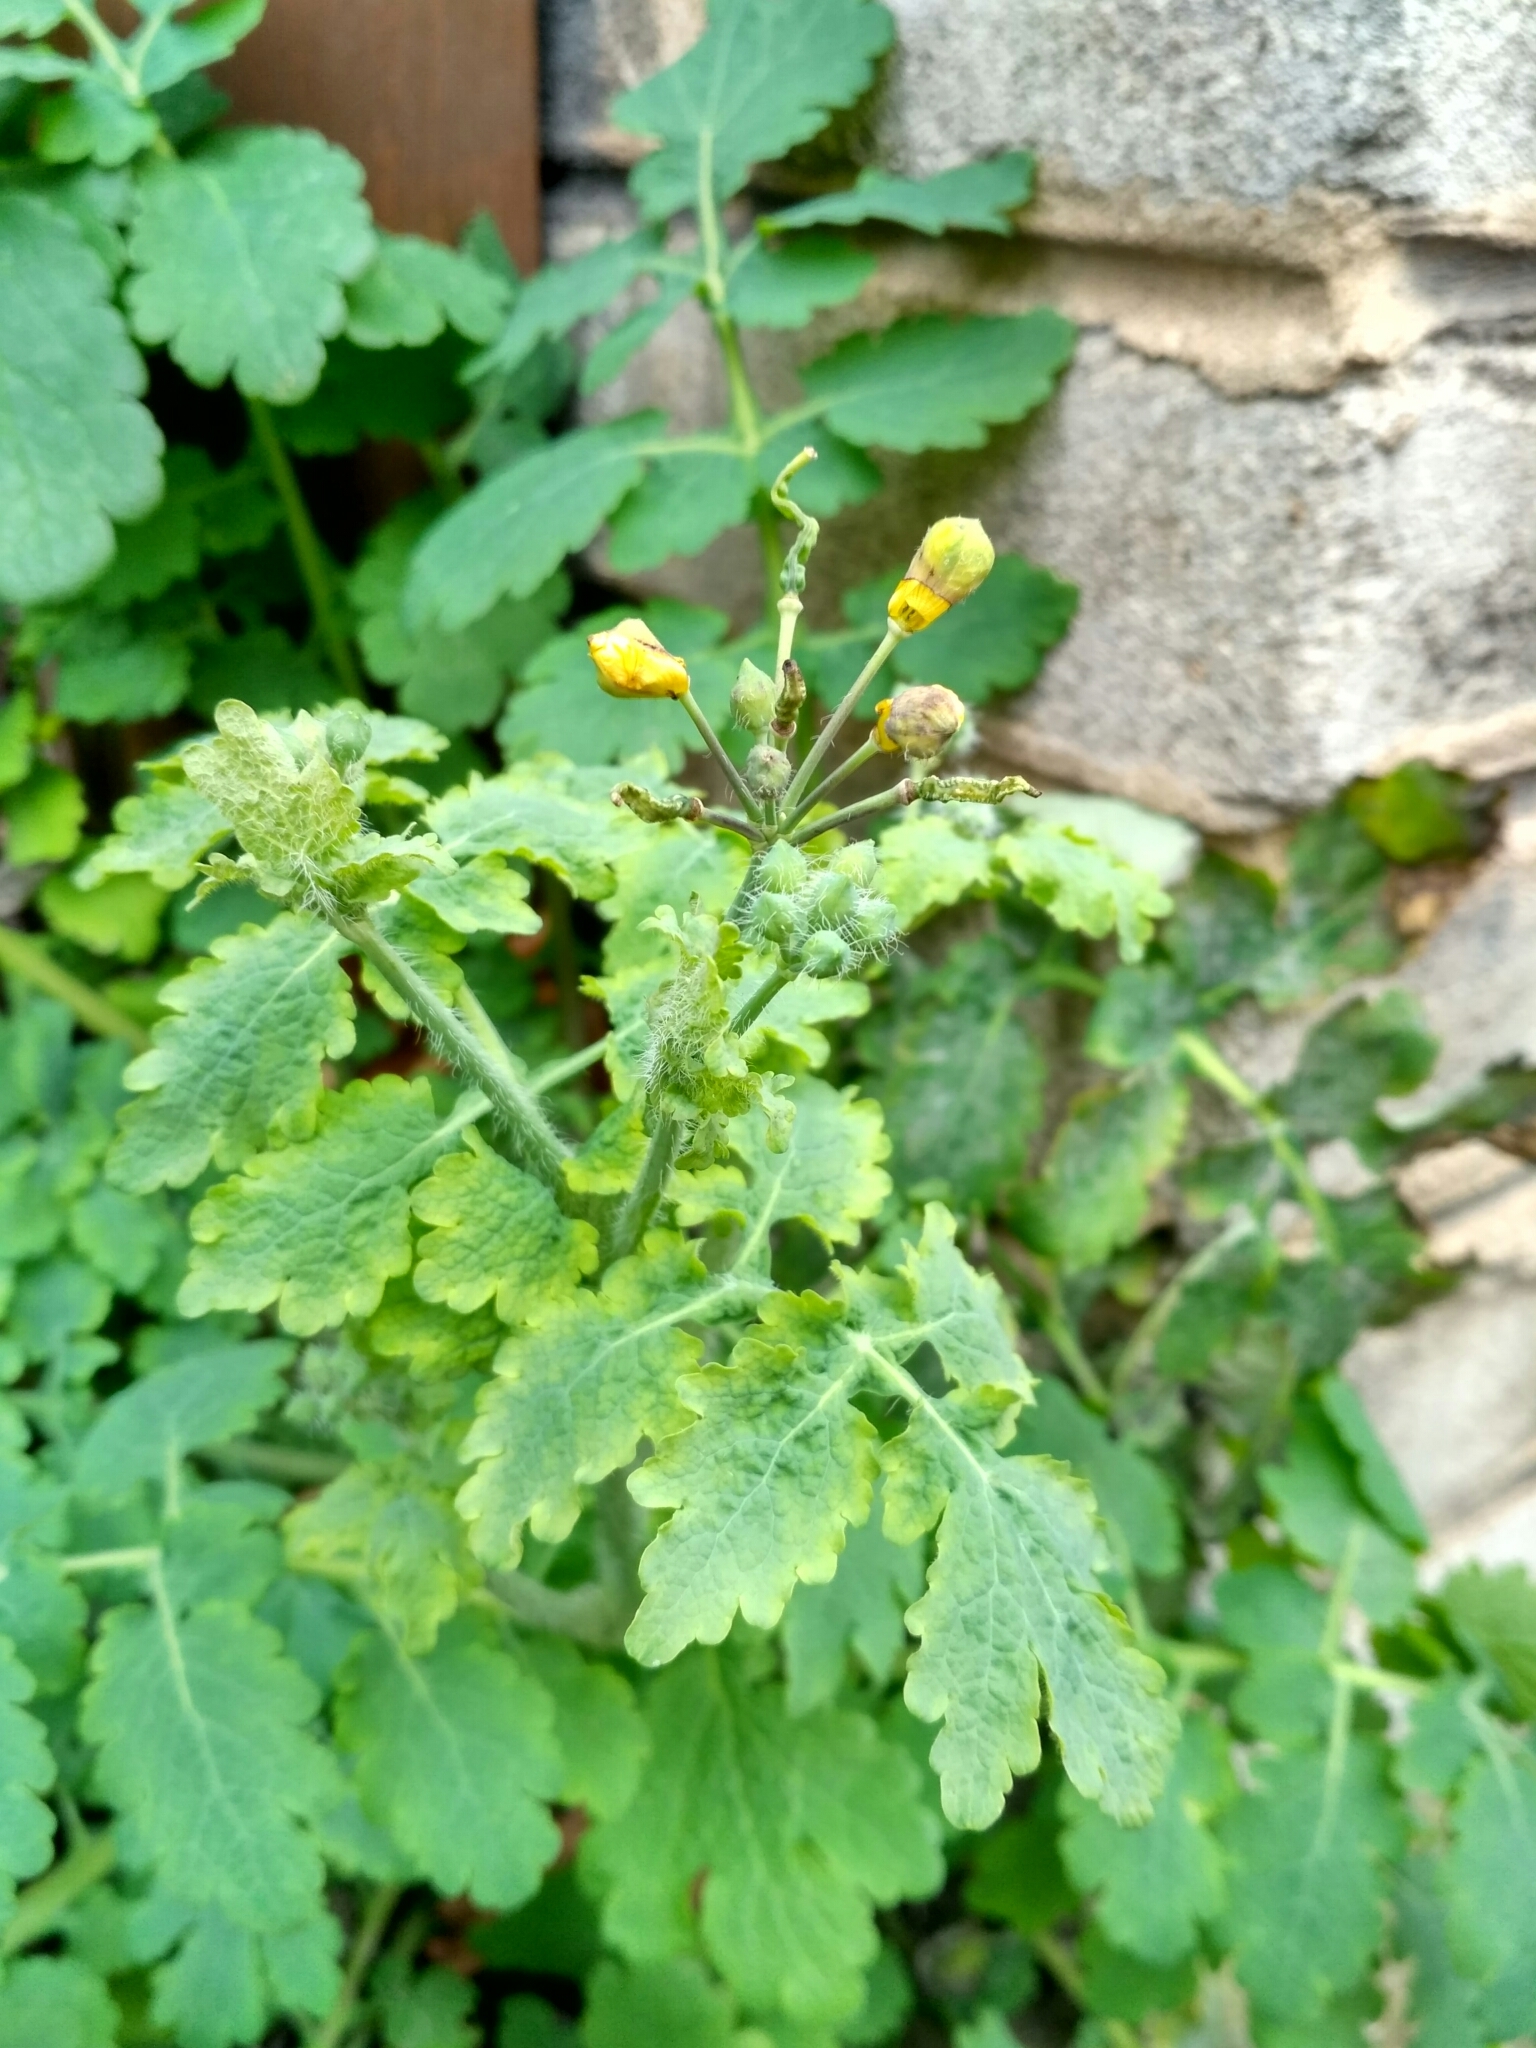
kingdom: Plantae
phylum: Tracheophyta
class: Magnoliopsida
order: Ranunculales
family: Papaveraceae
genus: Chelidonium
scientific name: Chelidonium majus
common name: Greater celandine
